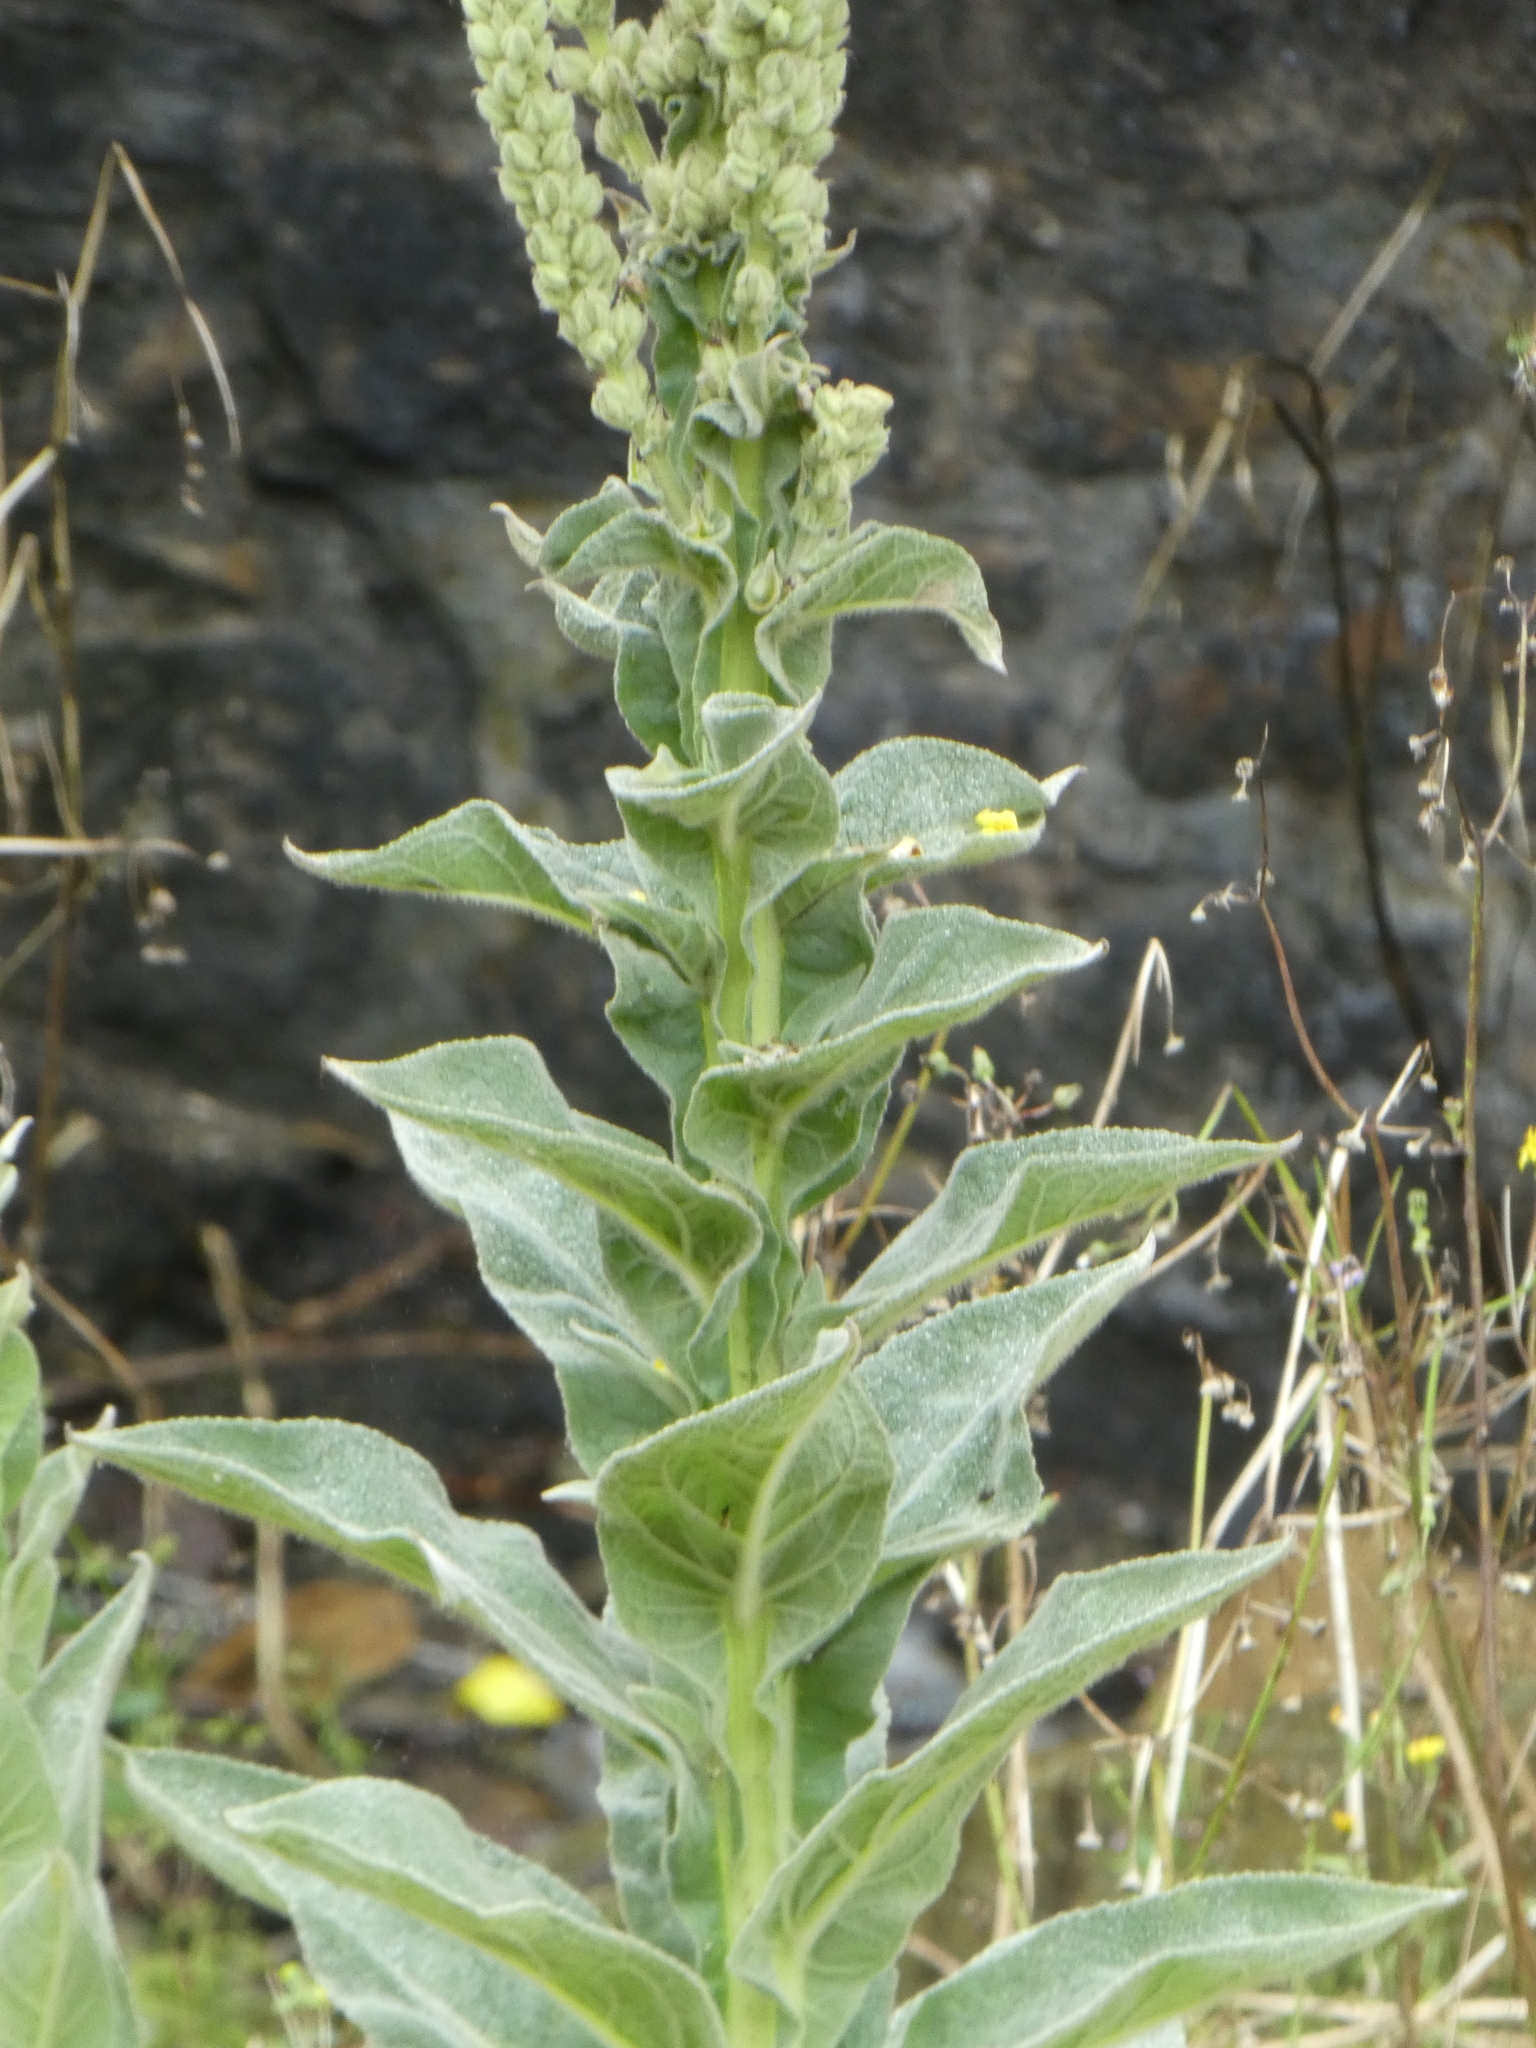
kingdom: Plantae
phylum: Tracheophyta
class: Magnoliopsida
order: Lamiales
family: Scrophulariaceae
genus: Verbascum
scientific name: Verbascum thapsus
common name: Common mullein
